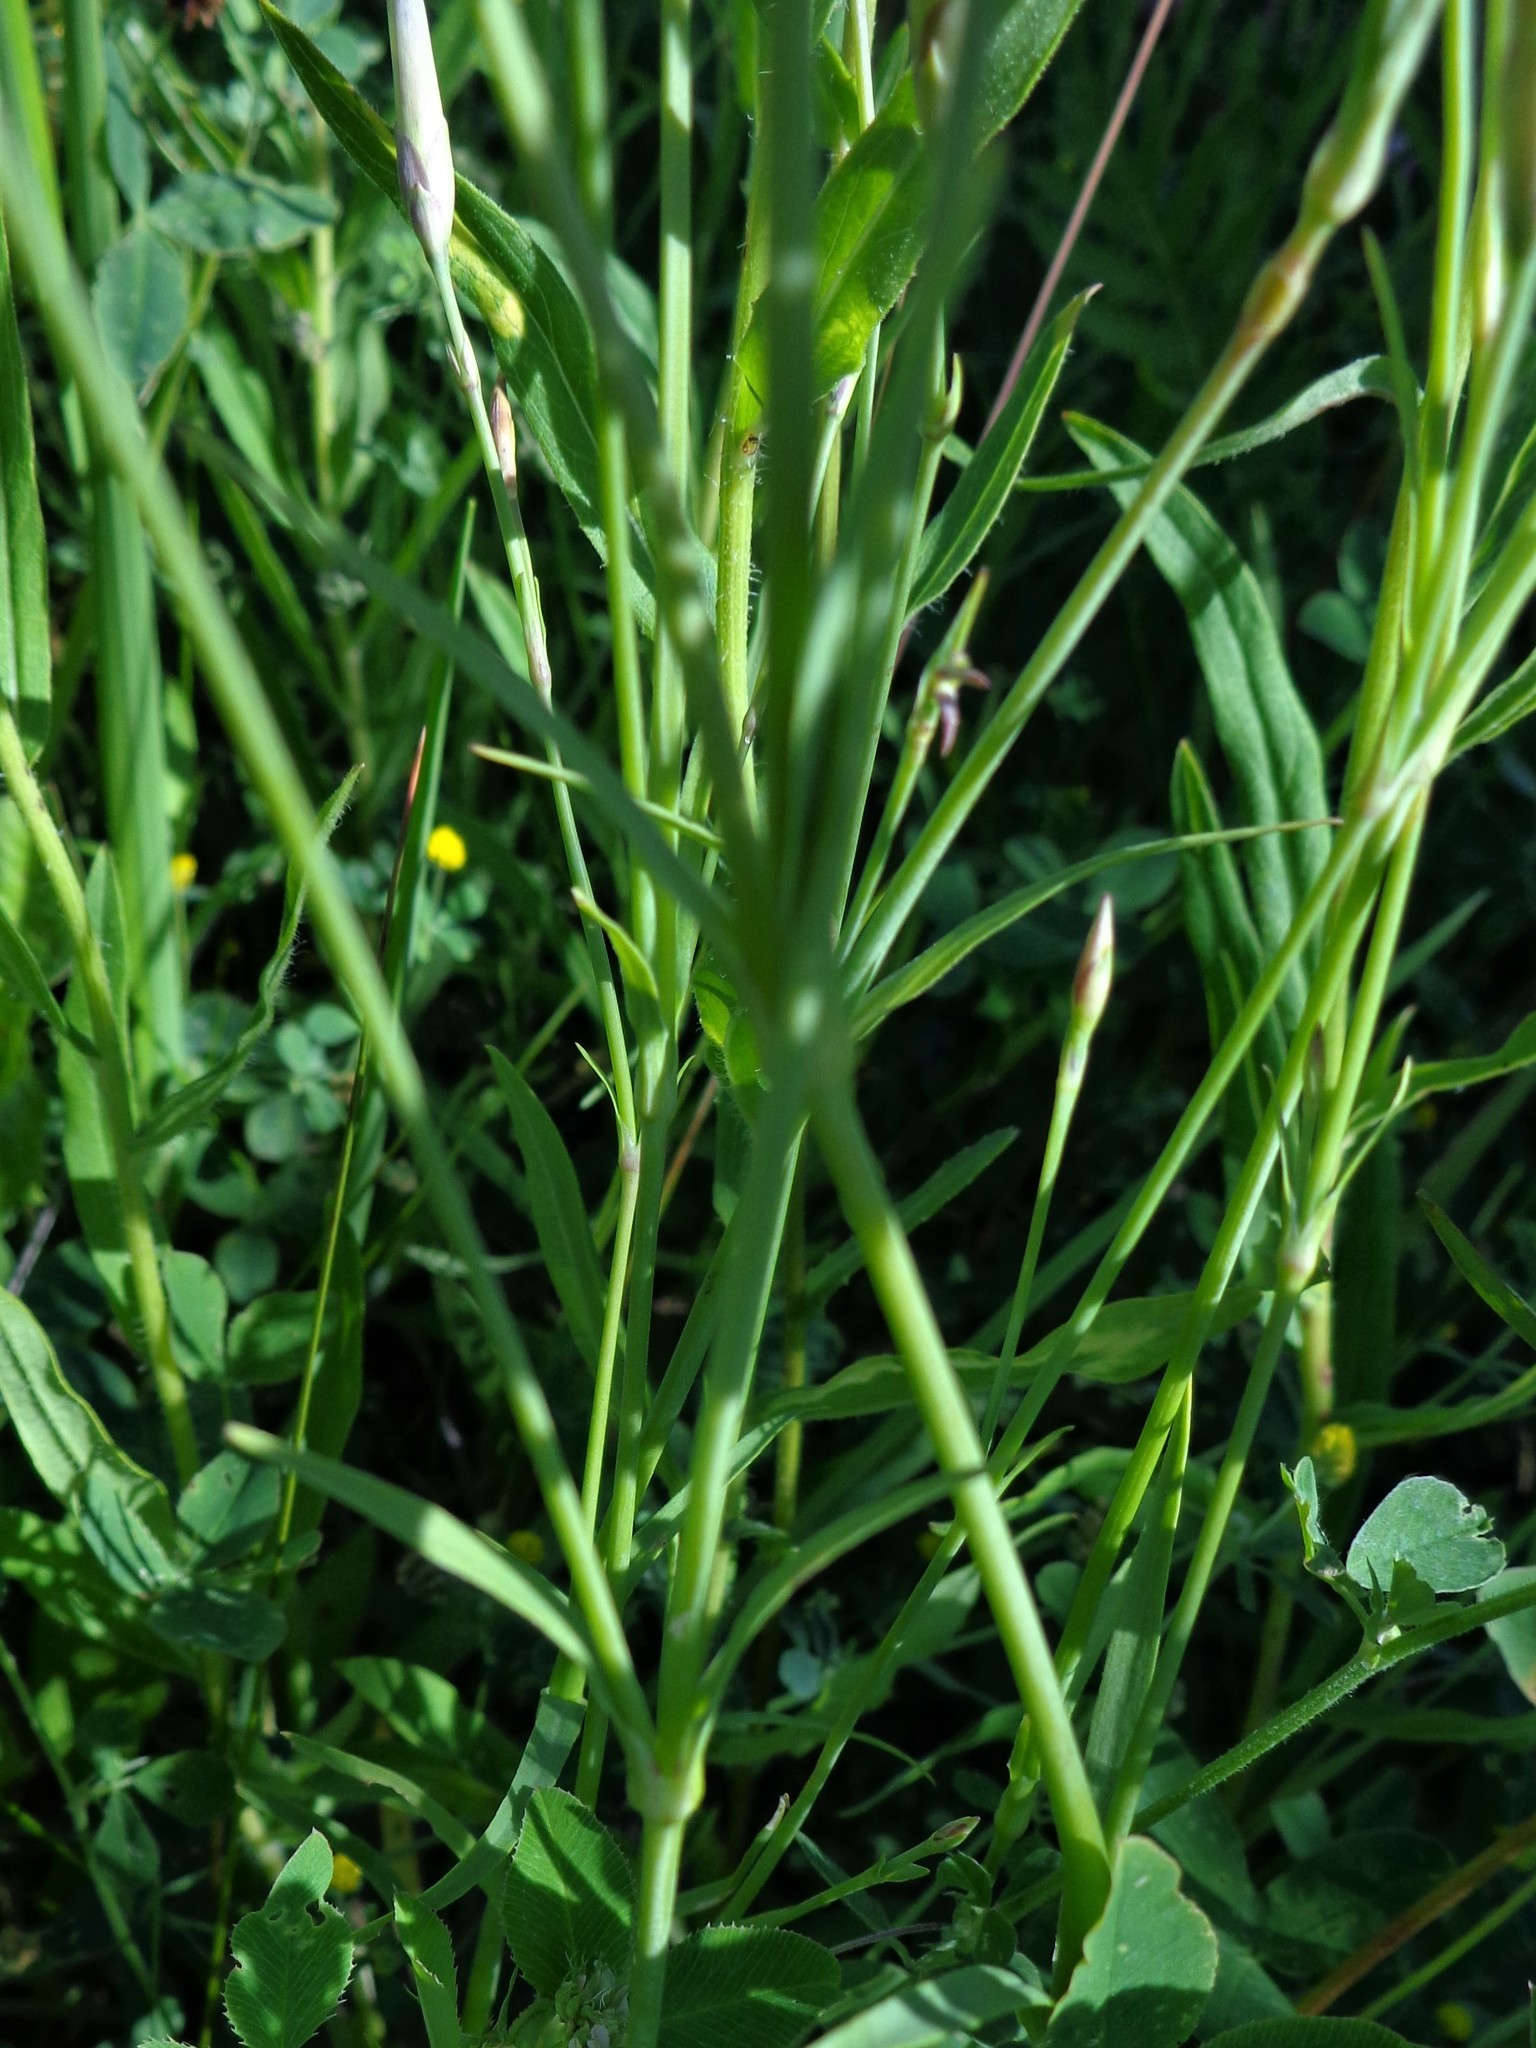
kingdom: Plantae
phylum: Tracheophyta
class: Magnoliopsida
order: Caryophyllales
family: Caryophyllaceae
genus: Dianthus
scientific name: Dianthus superbus
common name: Fringed pink
